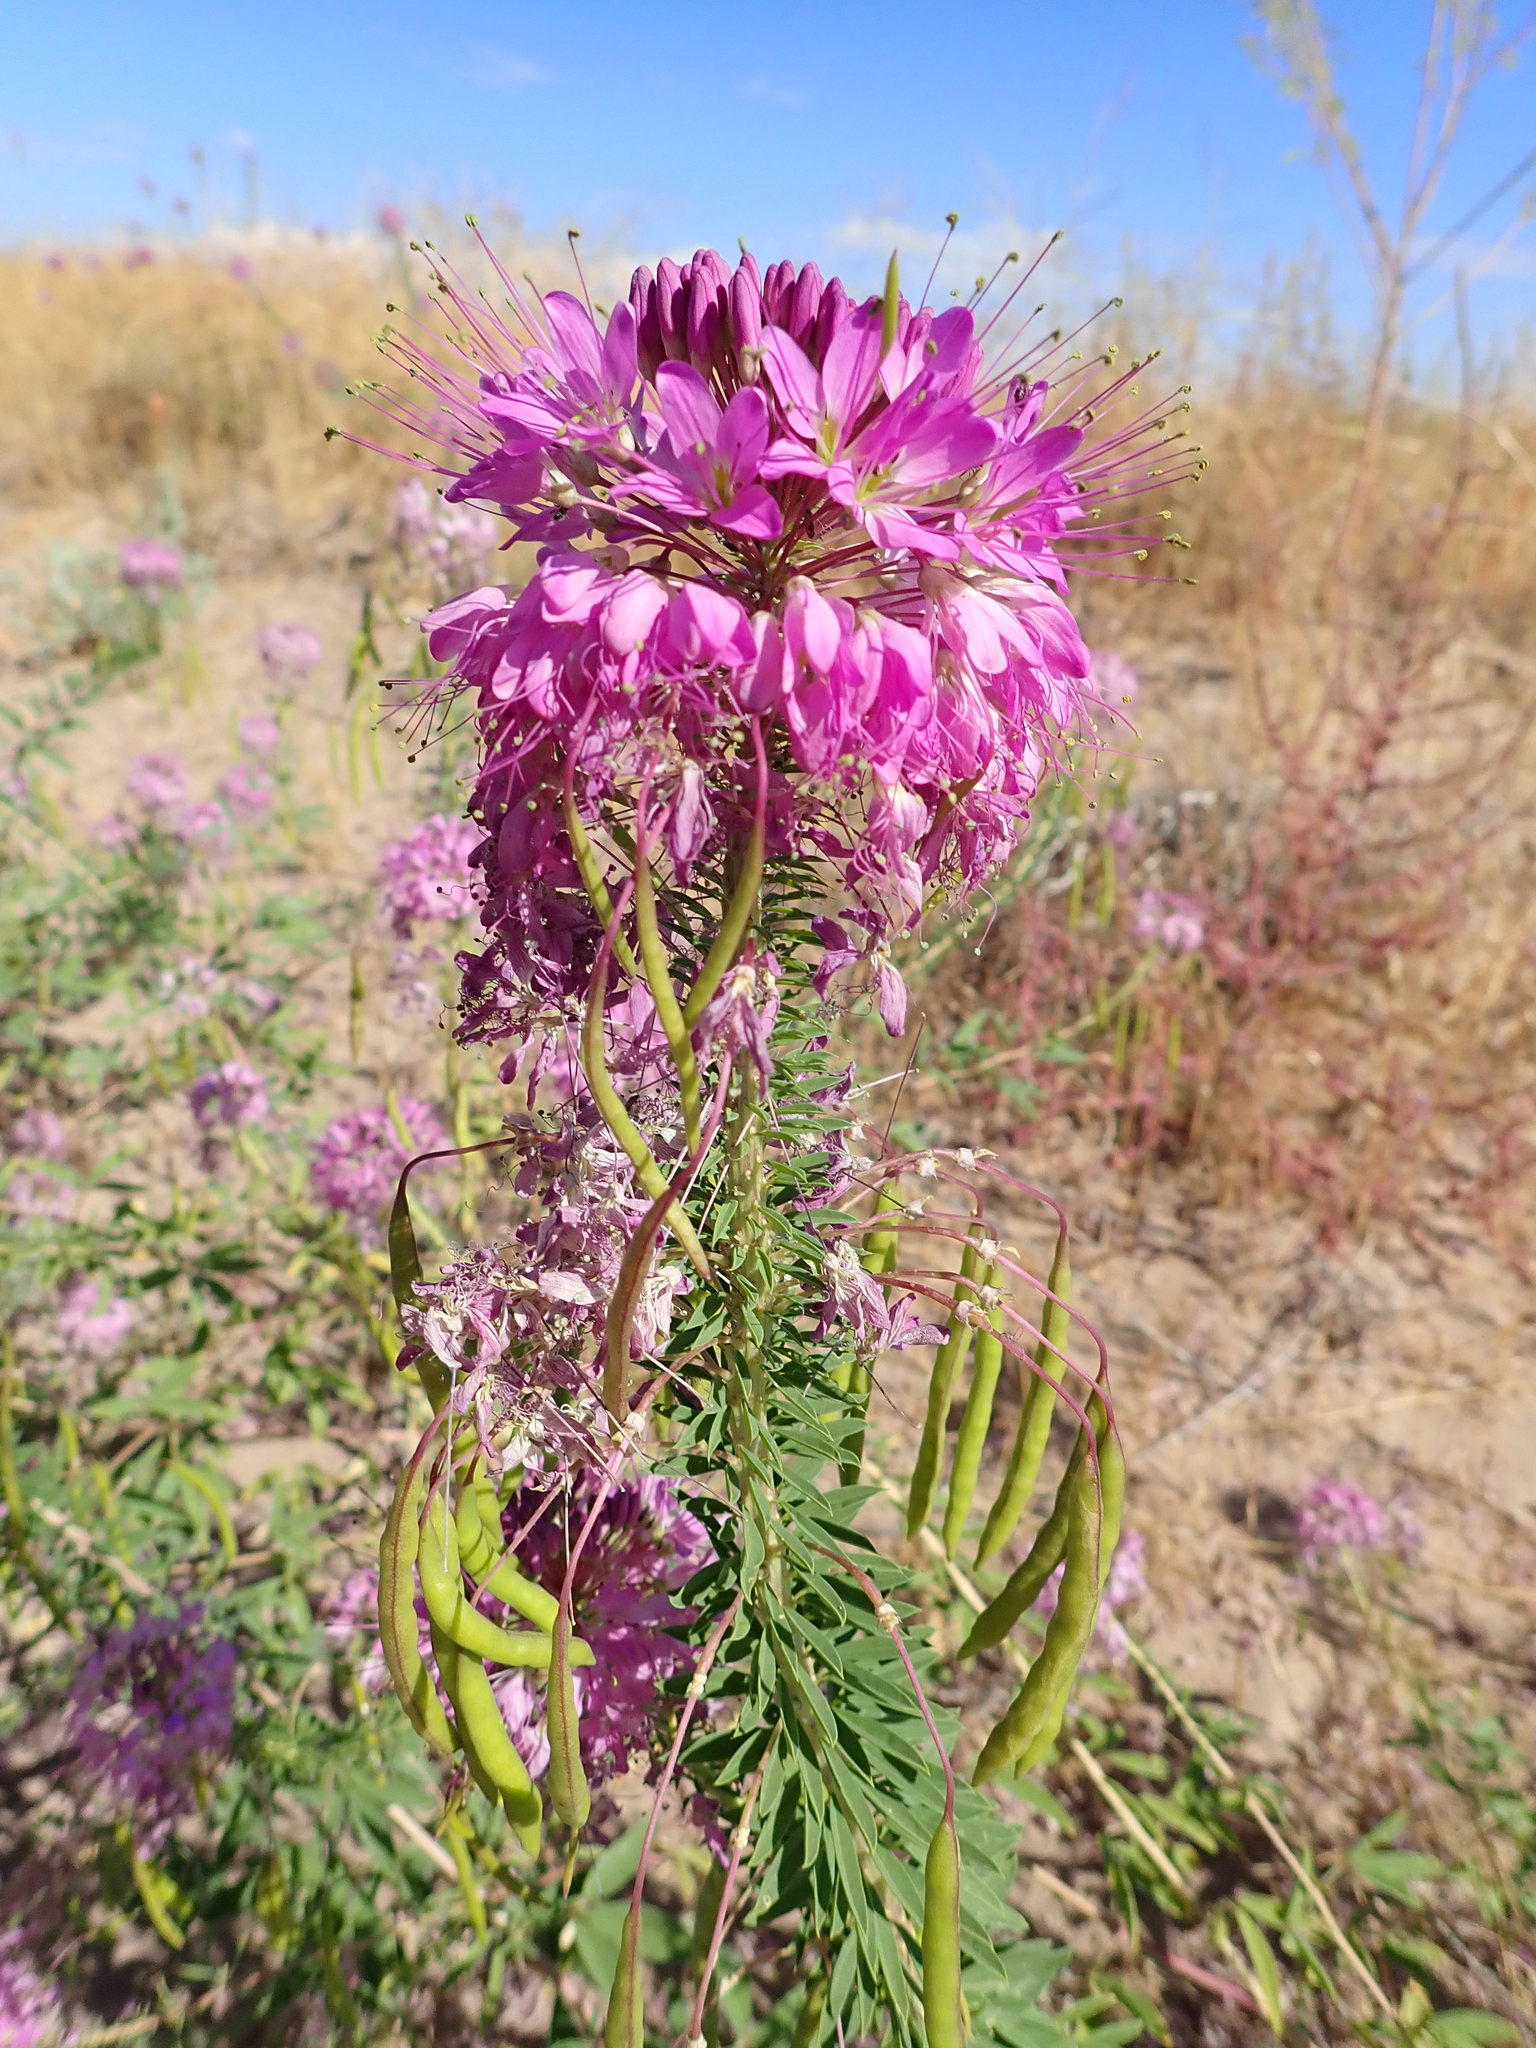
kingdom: Plantae
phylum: Tracheophyta
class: Magnoliopsida
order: Brassicales
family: Cleomaceae
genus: Cleomella
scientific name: Cleomella serrulata
